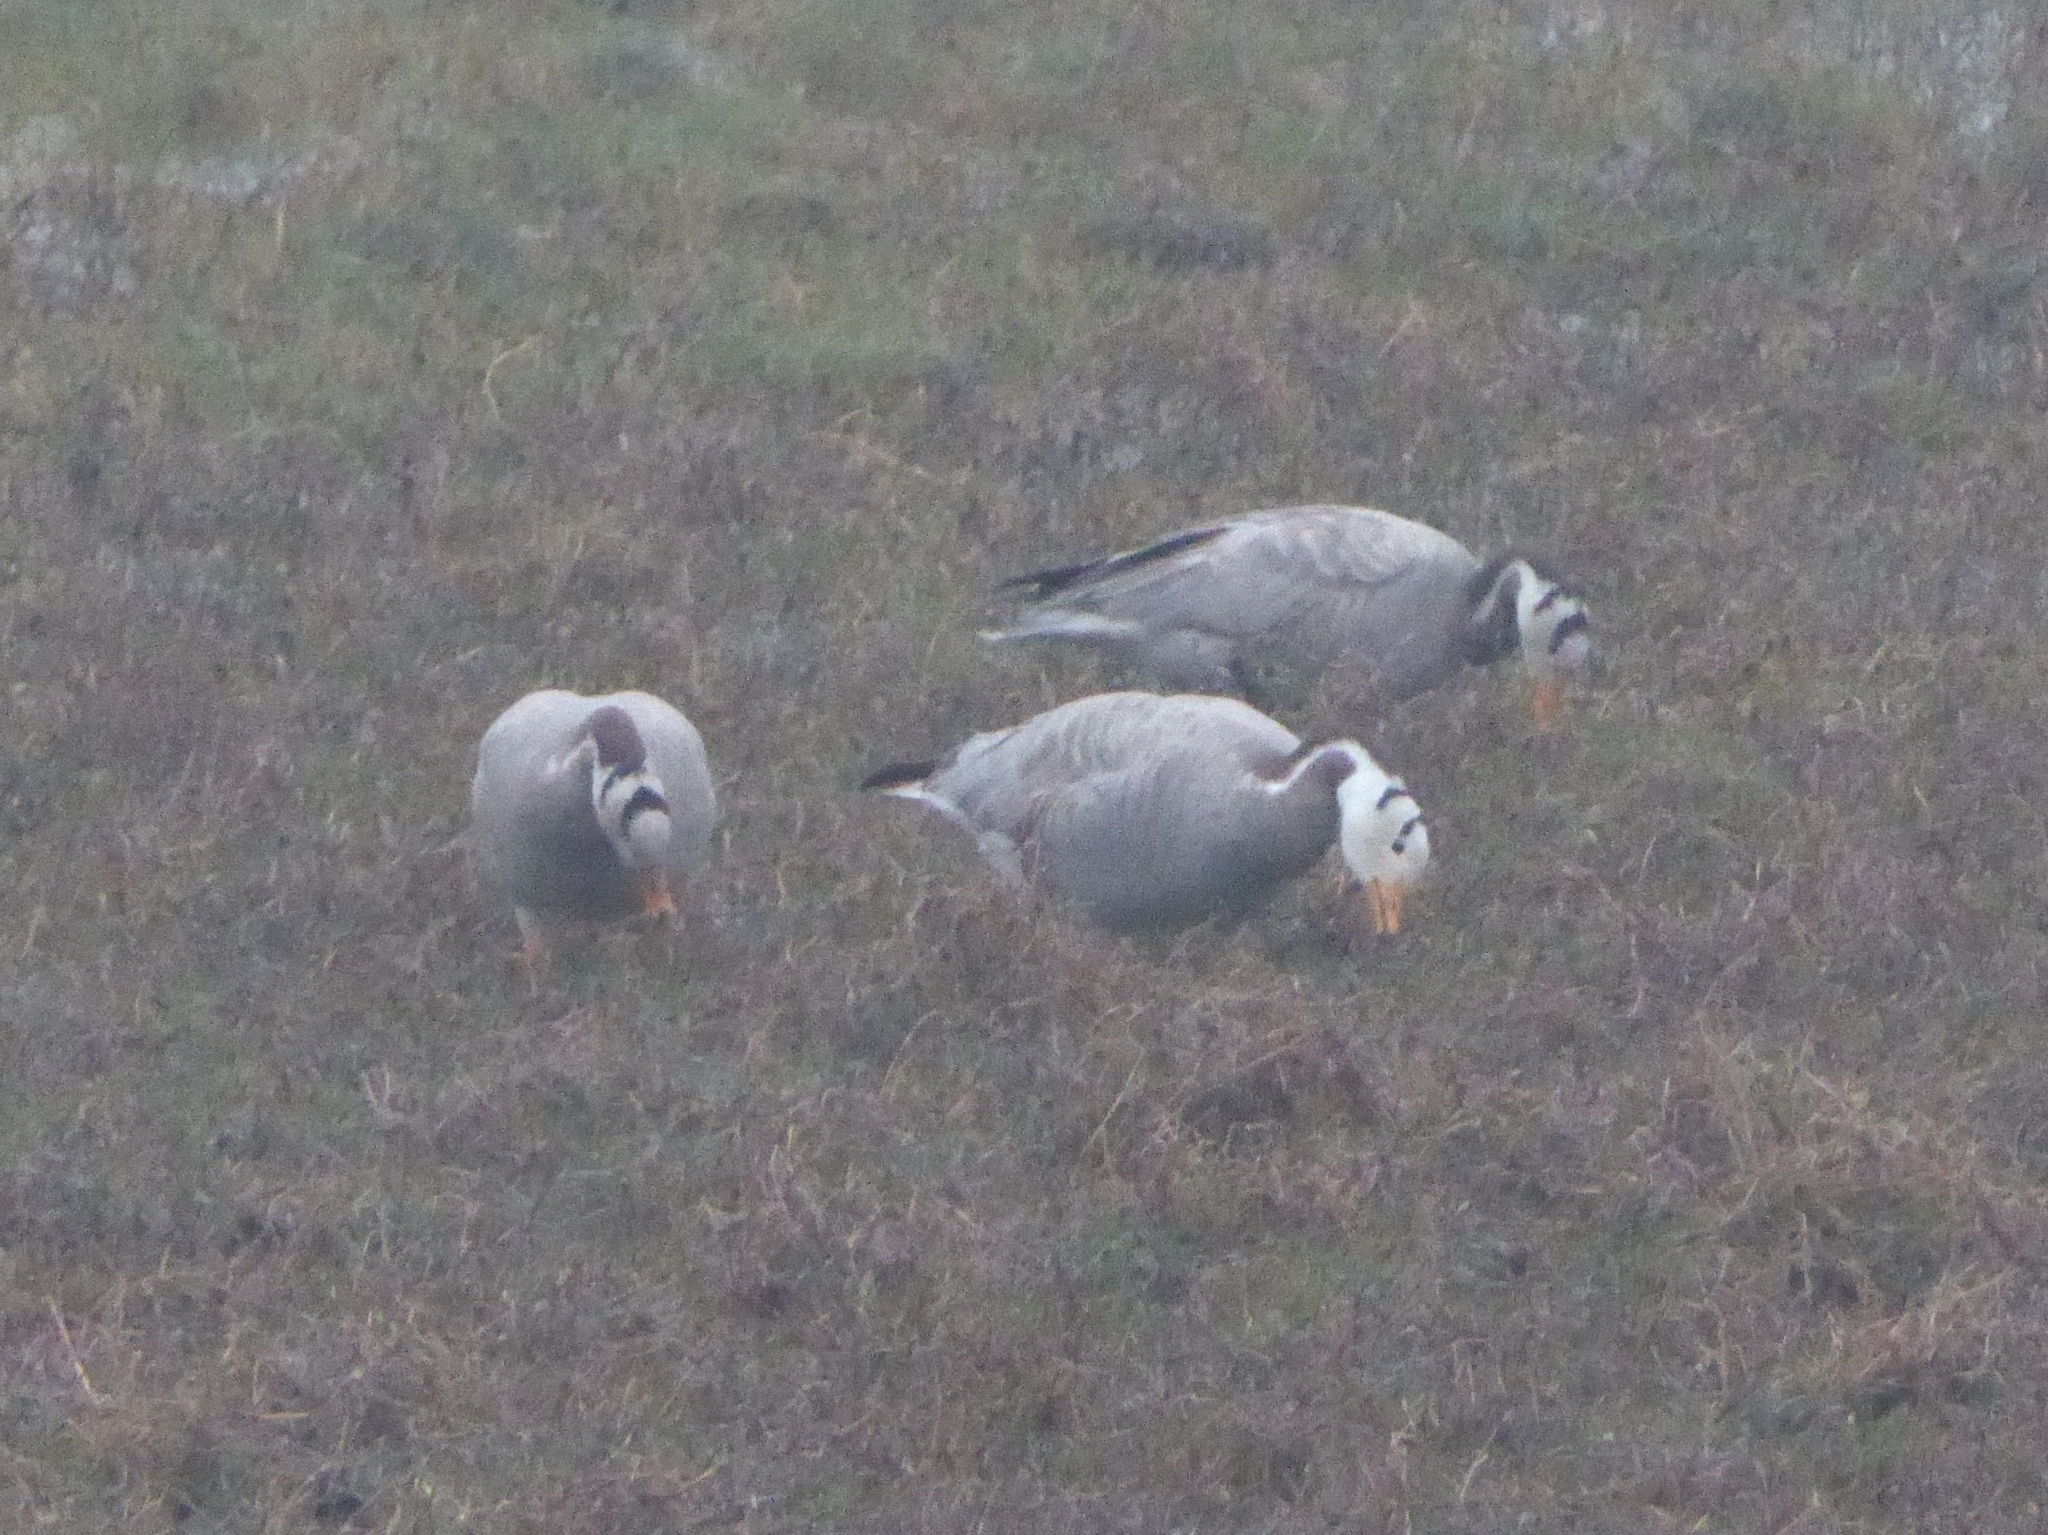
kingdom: Animalia
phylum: Chordata
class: Aves
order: Anseriformes
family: Anatidae
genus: Anser
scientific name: Anser indicus
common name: Bar-headed goose
